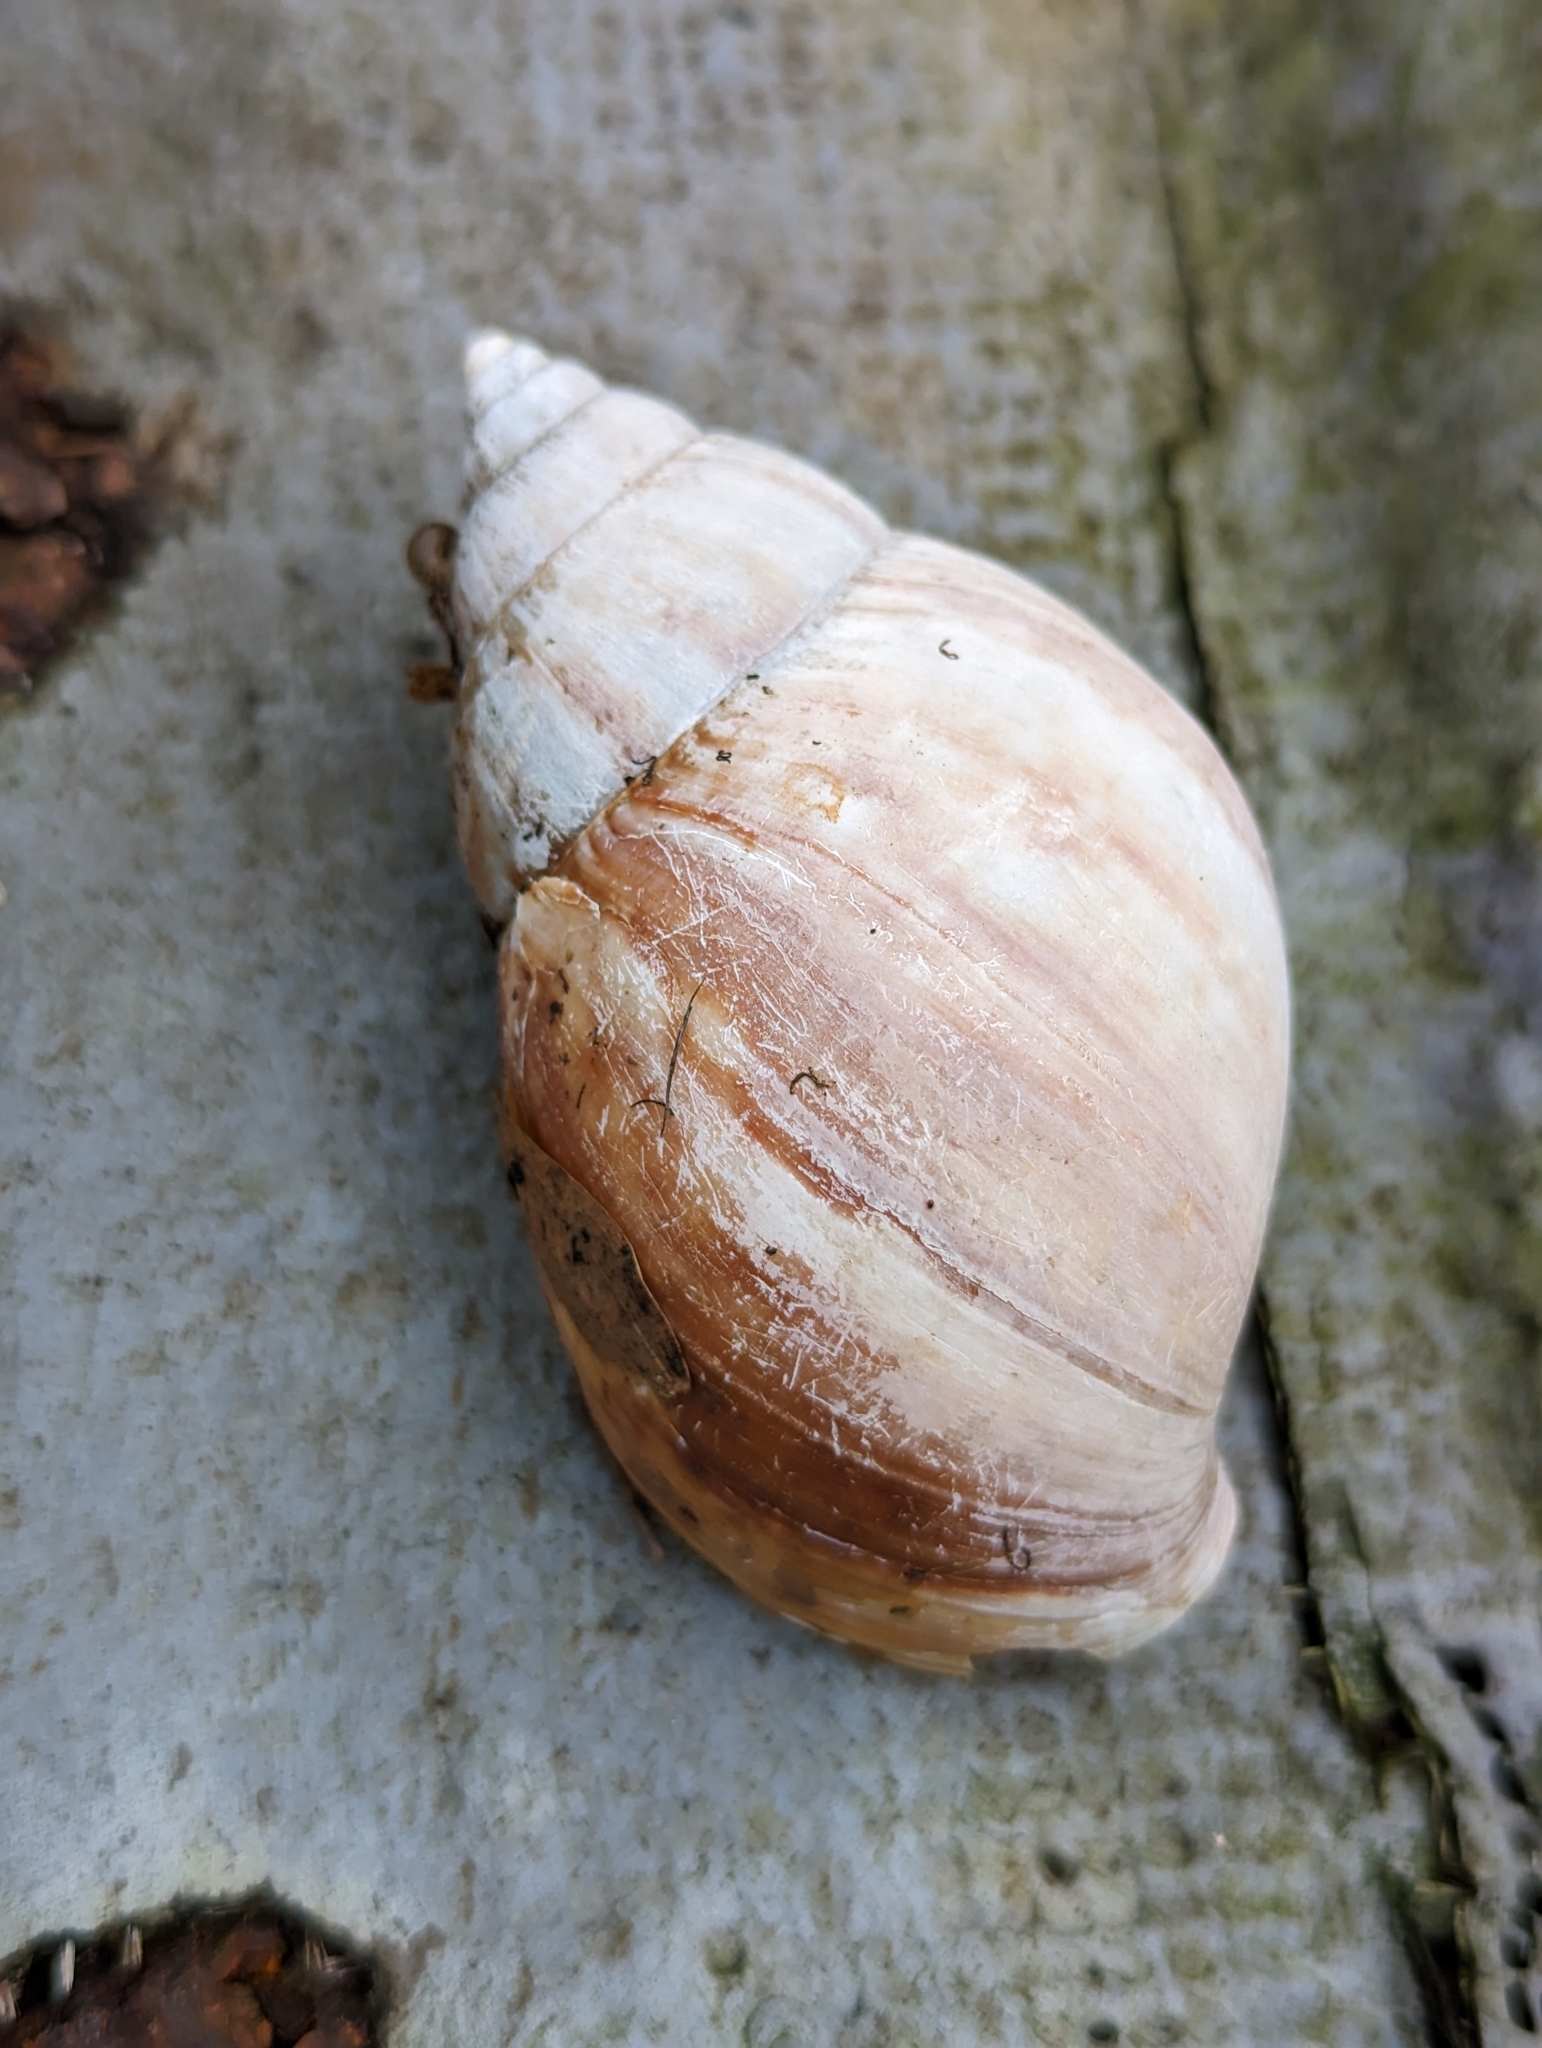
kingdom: Animalia
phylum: Mollusca
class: Gastropoda
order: Stylommatophora
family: Achatinidae
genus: Lissachatina
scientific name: Lissachatina fulica
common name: Giant african snail
